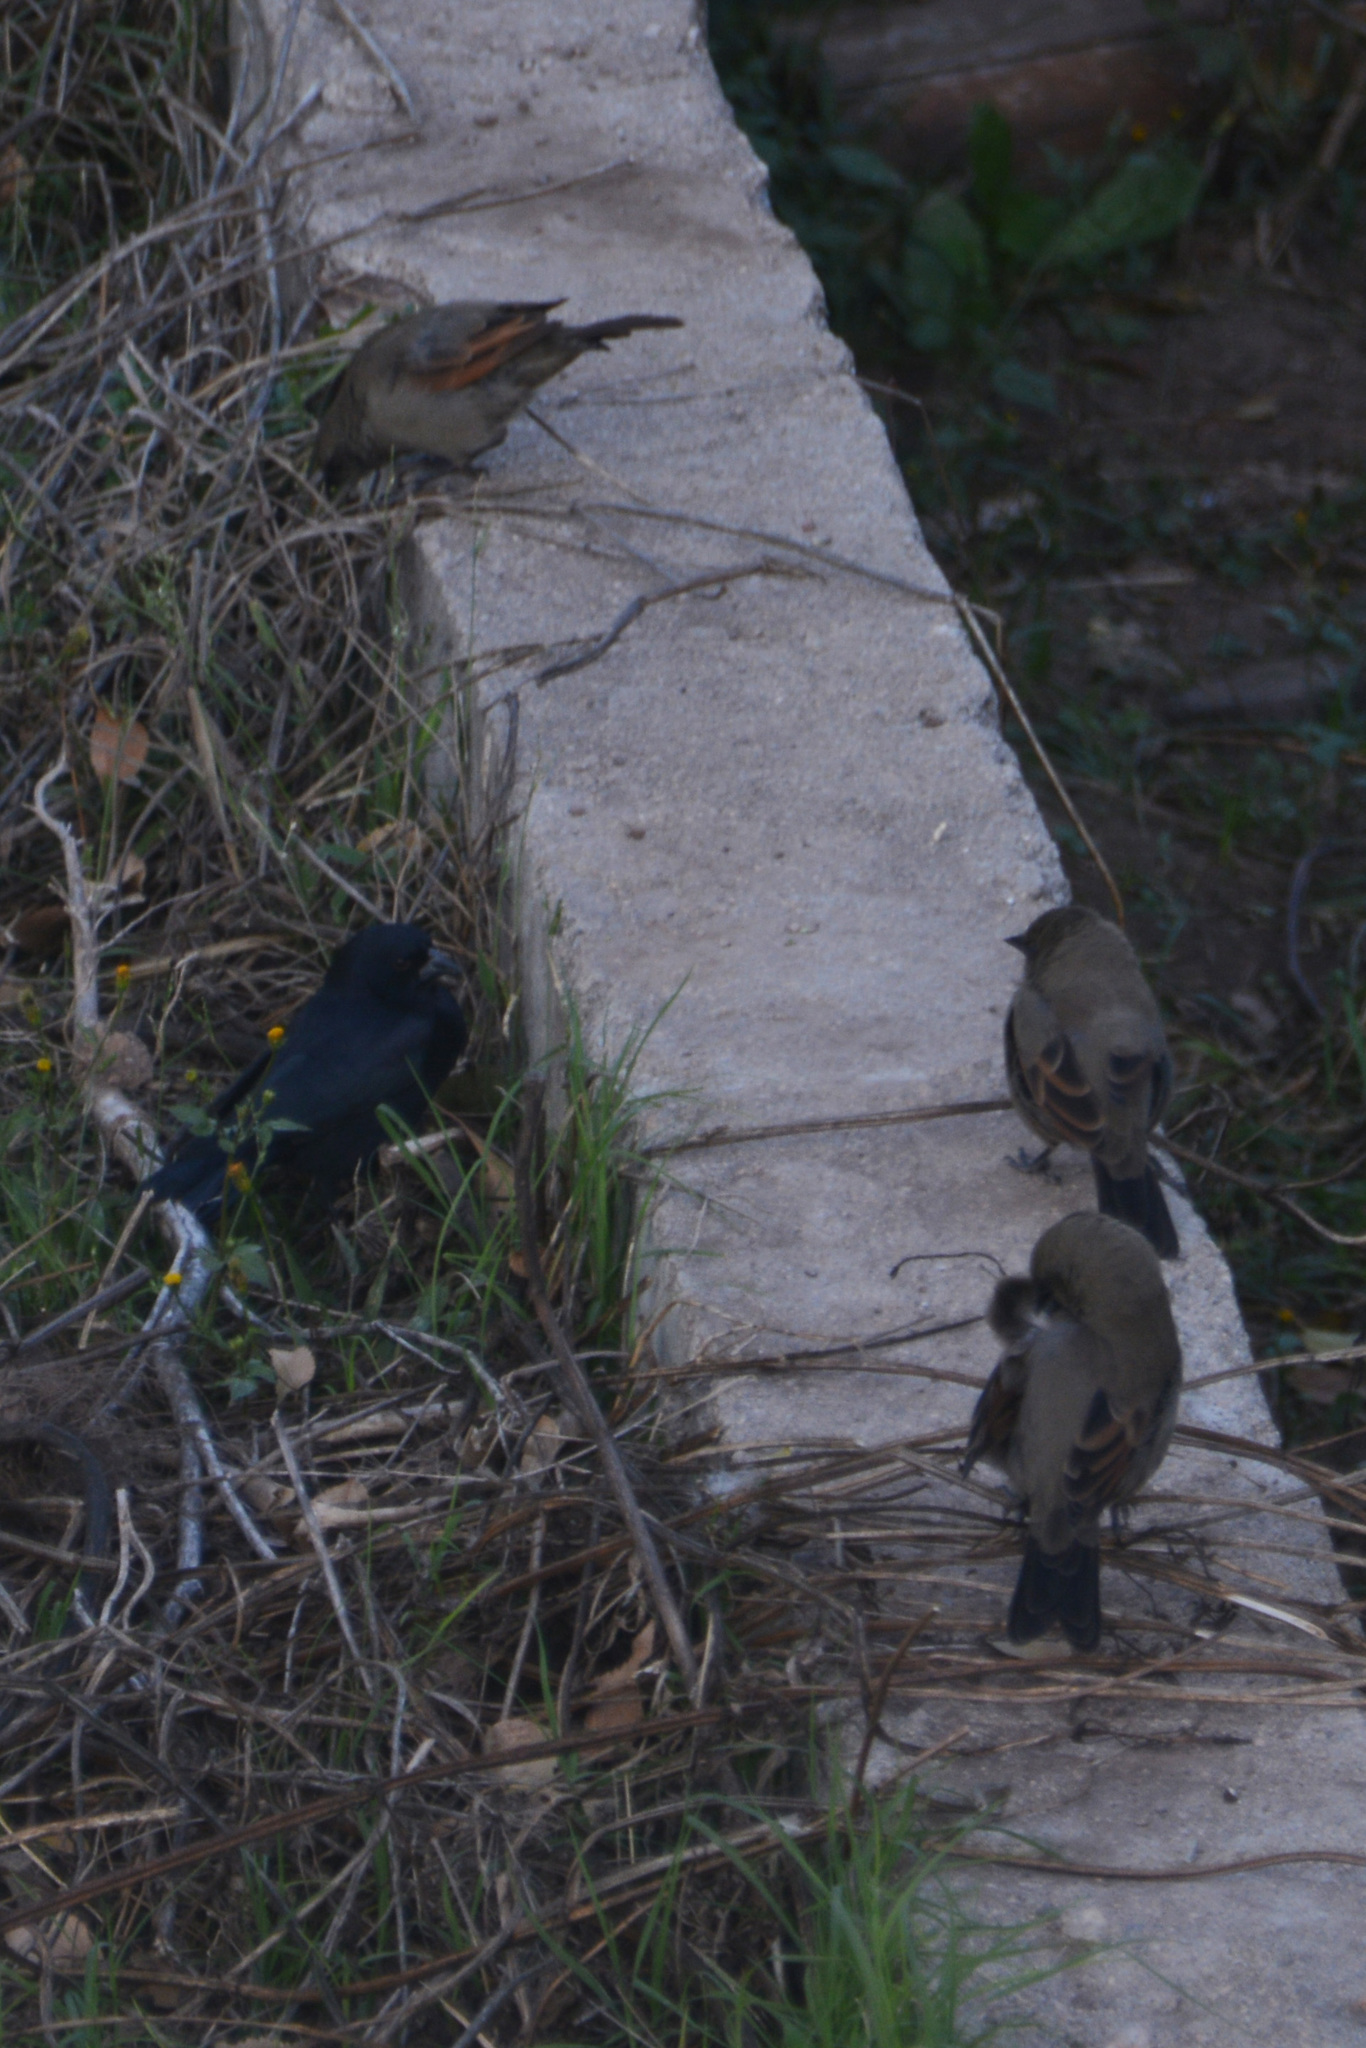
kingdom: Animalia
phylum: Chordata
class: Aves
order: Passeriformes
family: Icteridae
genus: Agelaioides
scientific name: Agelaioides badius
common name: Baywing
